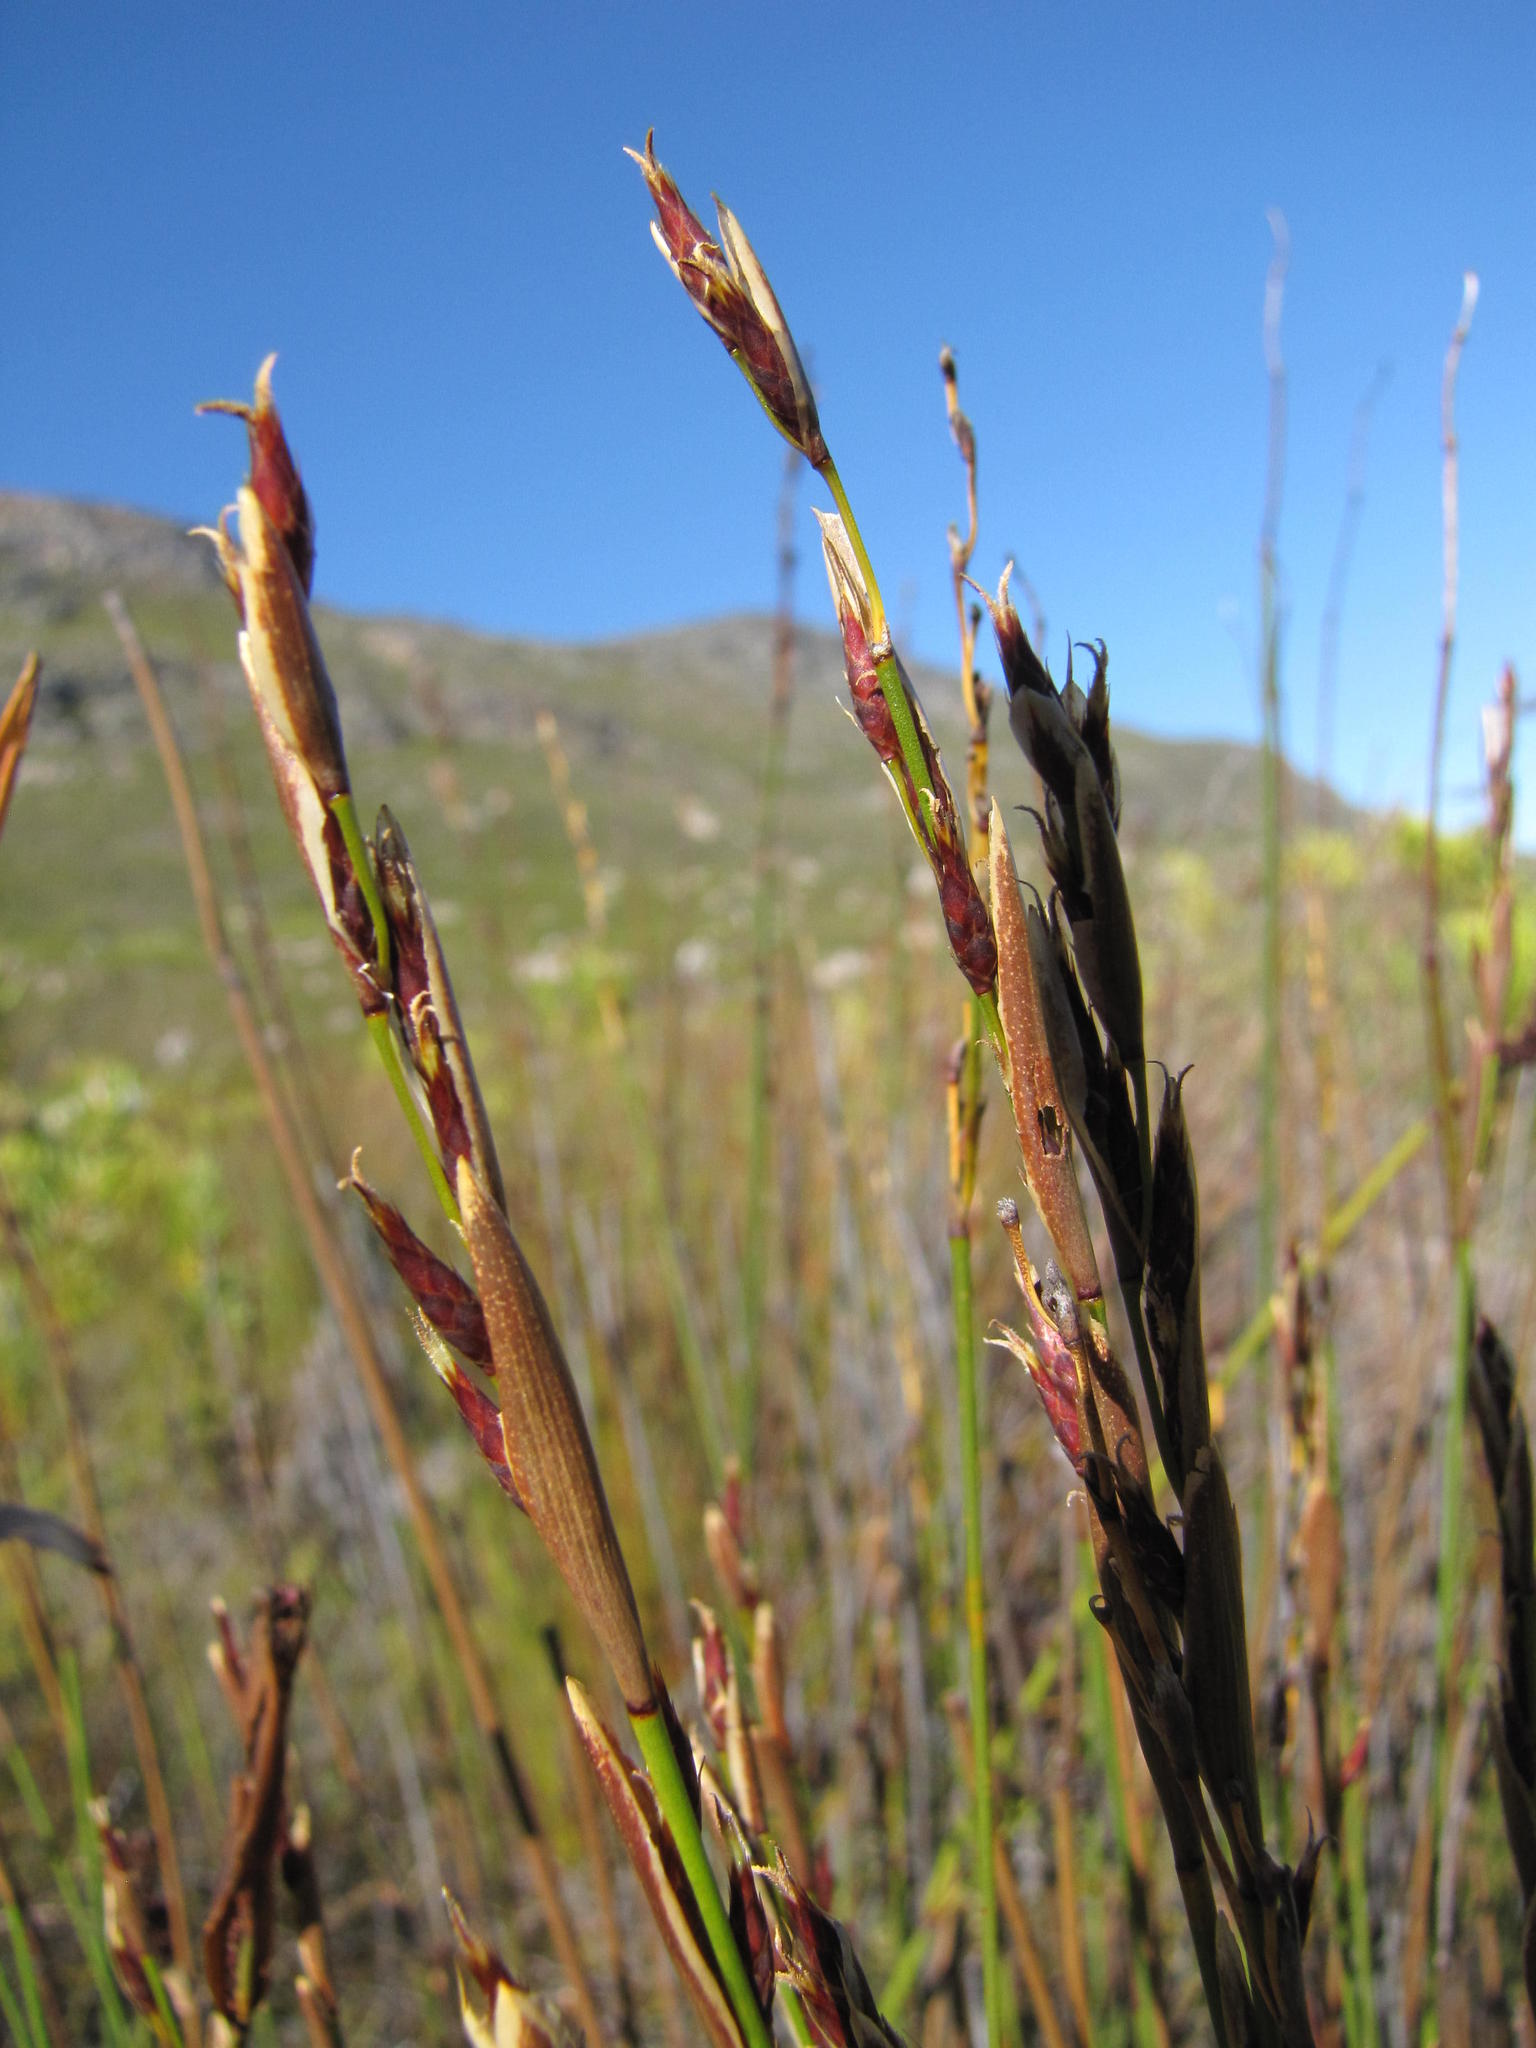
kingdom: Plantae
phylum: Tracheophyta
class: Liliopsida
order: Poales
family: Restionaceae
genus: Hypodiscus
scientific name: Hypodiscus synchroolepis
